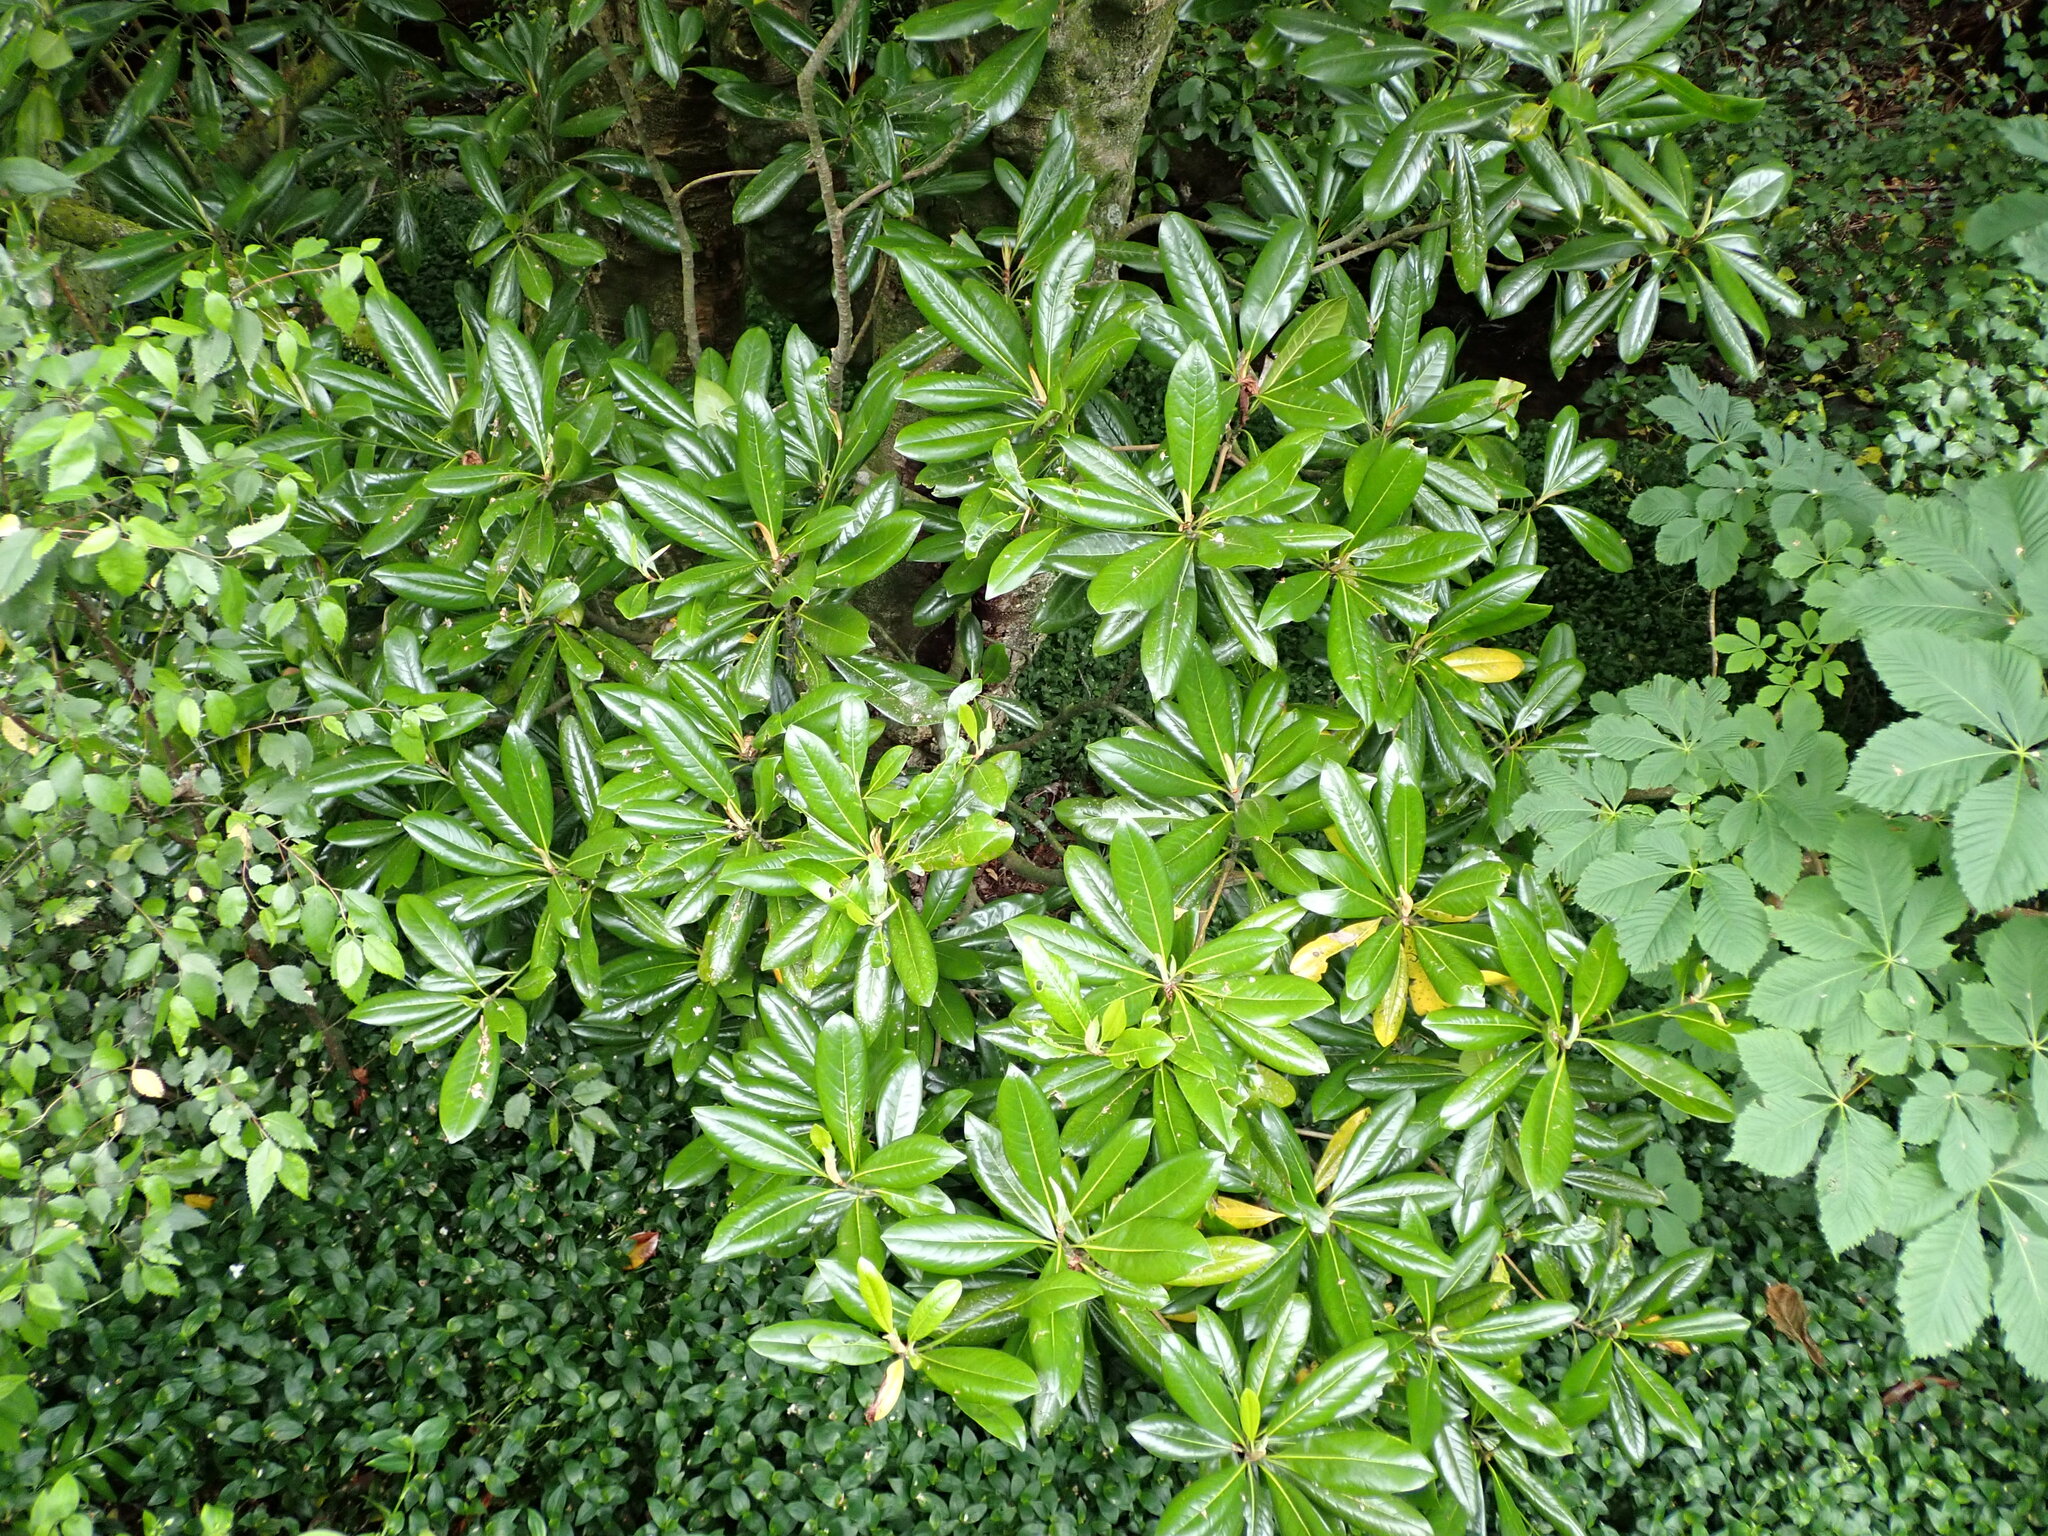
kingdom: Plantae
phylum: Tracheophyta
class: Magnoliopsida
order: Rosales
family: Rosaceae
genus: Prunus
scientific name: Prunus laurocerasus
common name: Cherry laurel
